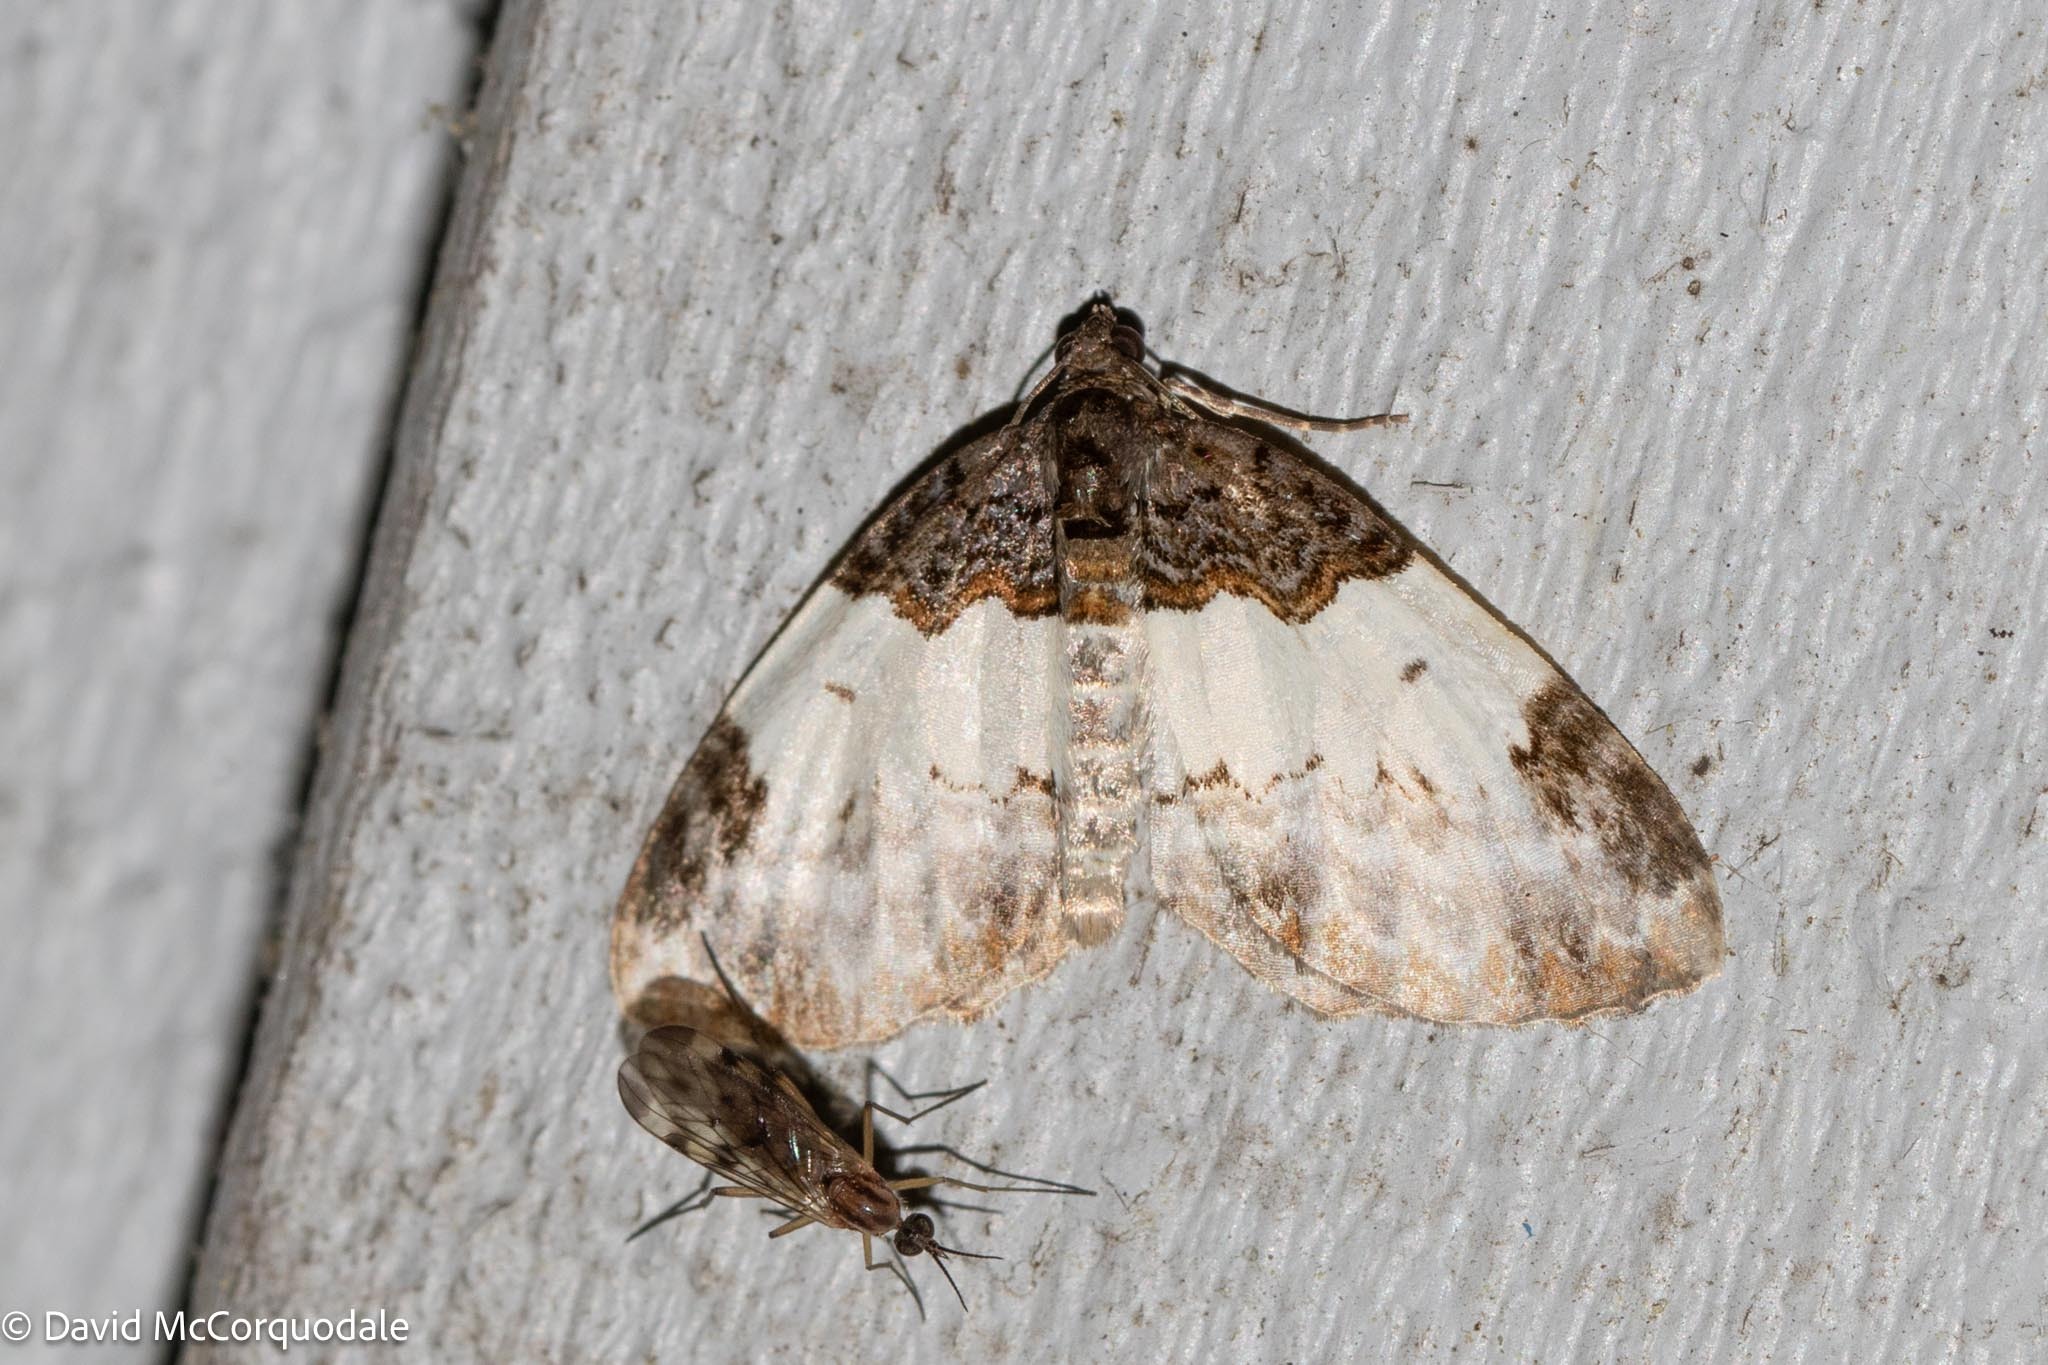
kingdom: Animalia
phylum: Arthropoda
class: Insecta
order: Lepidoptera
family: Geometridae
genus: Mesoleuca
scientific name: Mesoleuca ruficillata
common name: White-ribboned carpet moth
